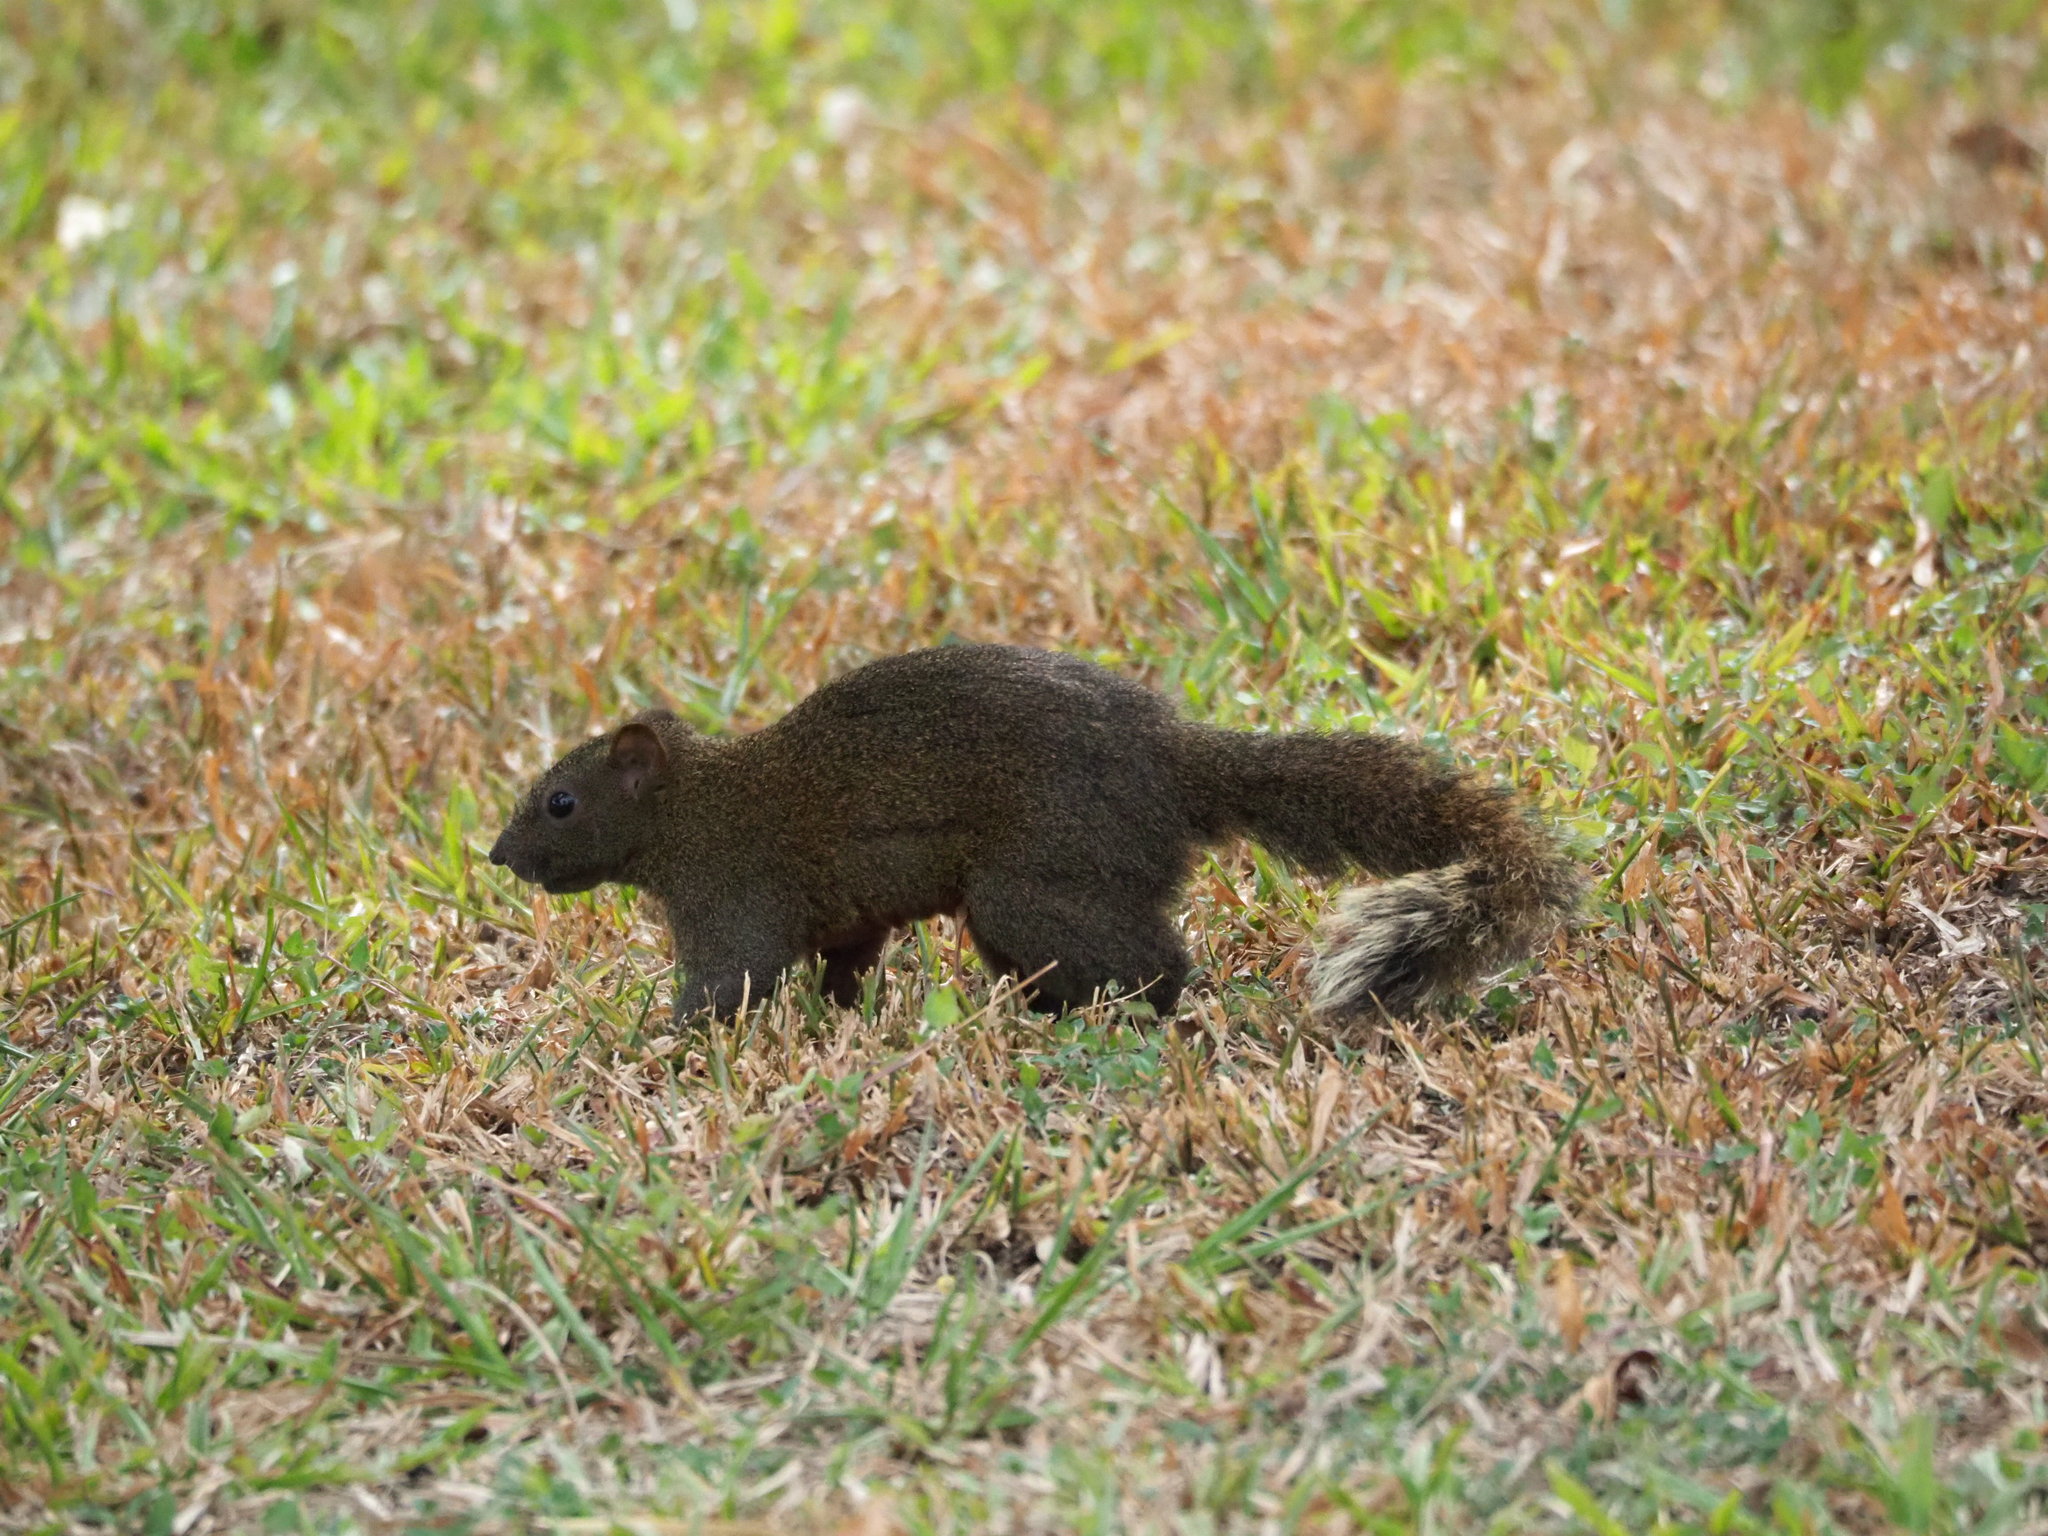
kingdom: Animalia
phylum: Chordata
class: Mammalia
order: Rodentia
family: Sciuridae
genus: Callosciurus
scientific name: Callosciurus erythraeus
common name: Pallas's squirrel
